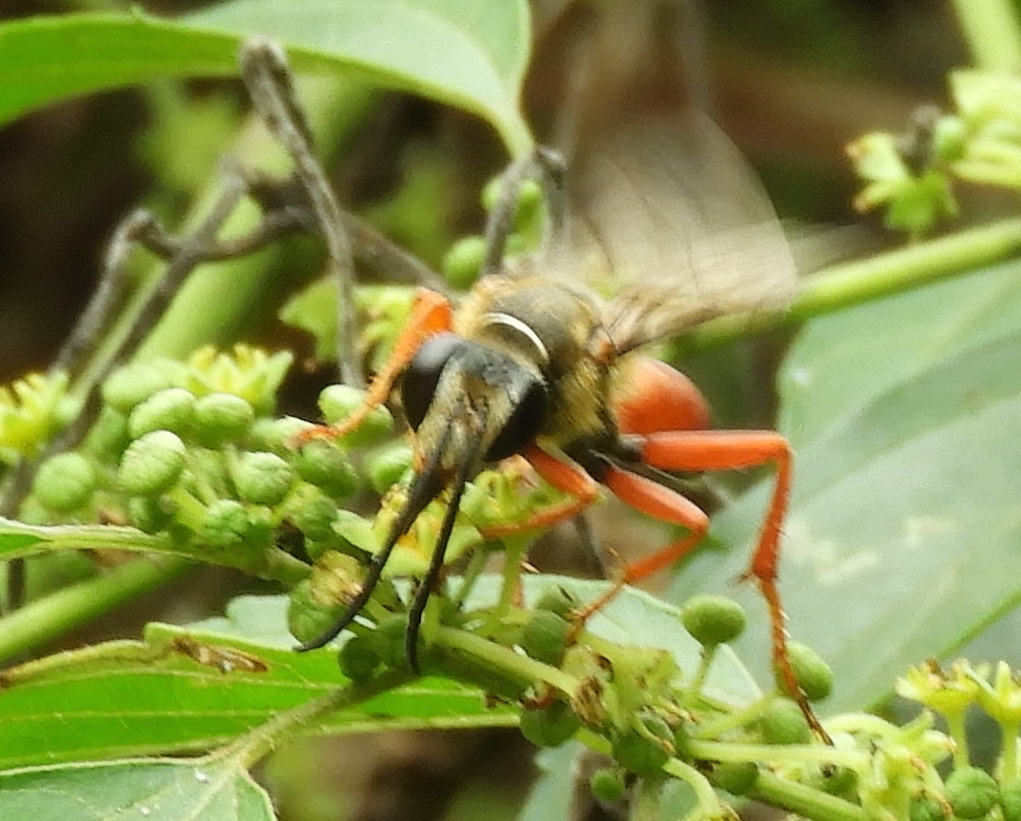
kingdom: Animalia
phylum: Arthropoda
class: Insecta
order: Hymenoptera
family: Sphecidae
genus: Sphex
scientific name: Sphex ichneumoneus
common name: Great golden digger wasp
